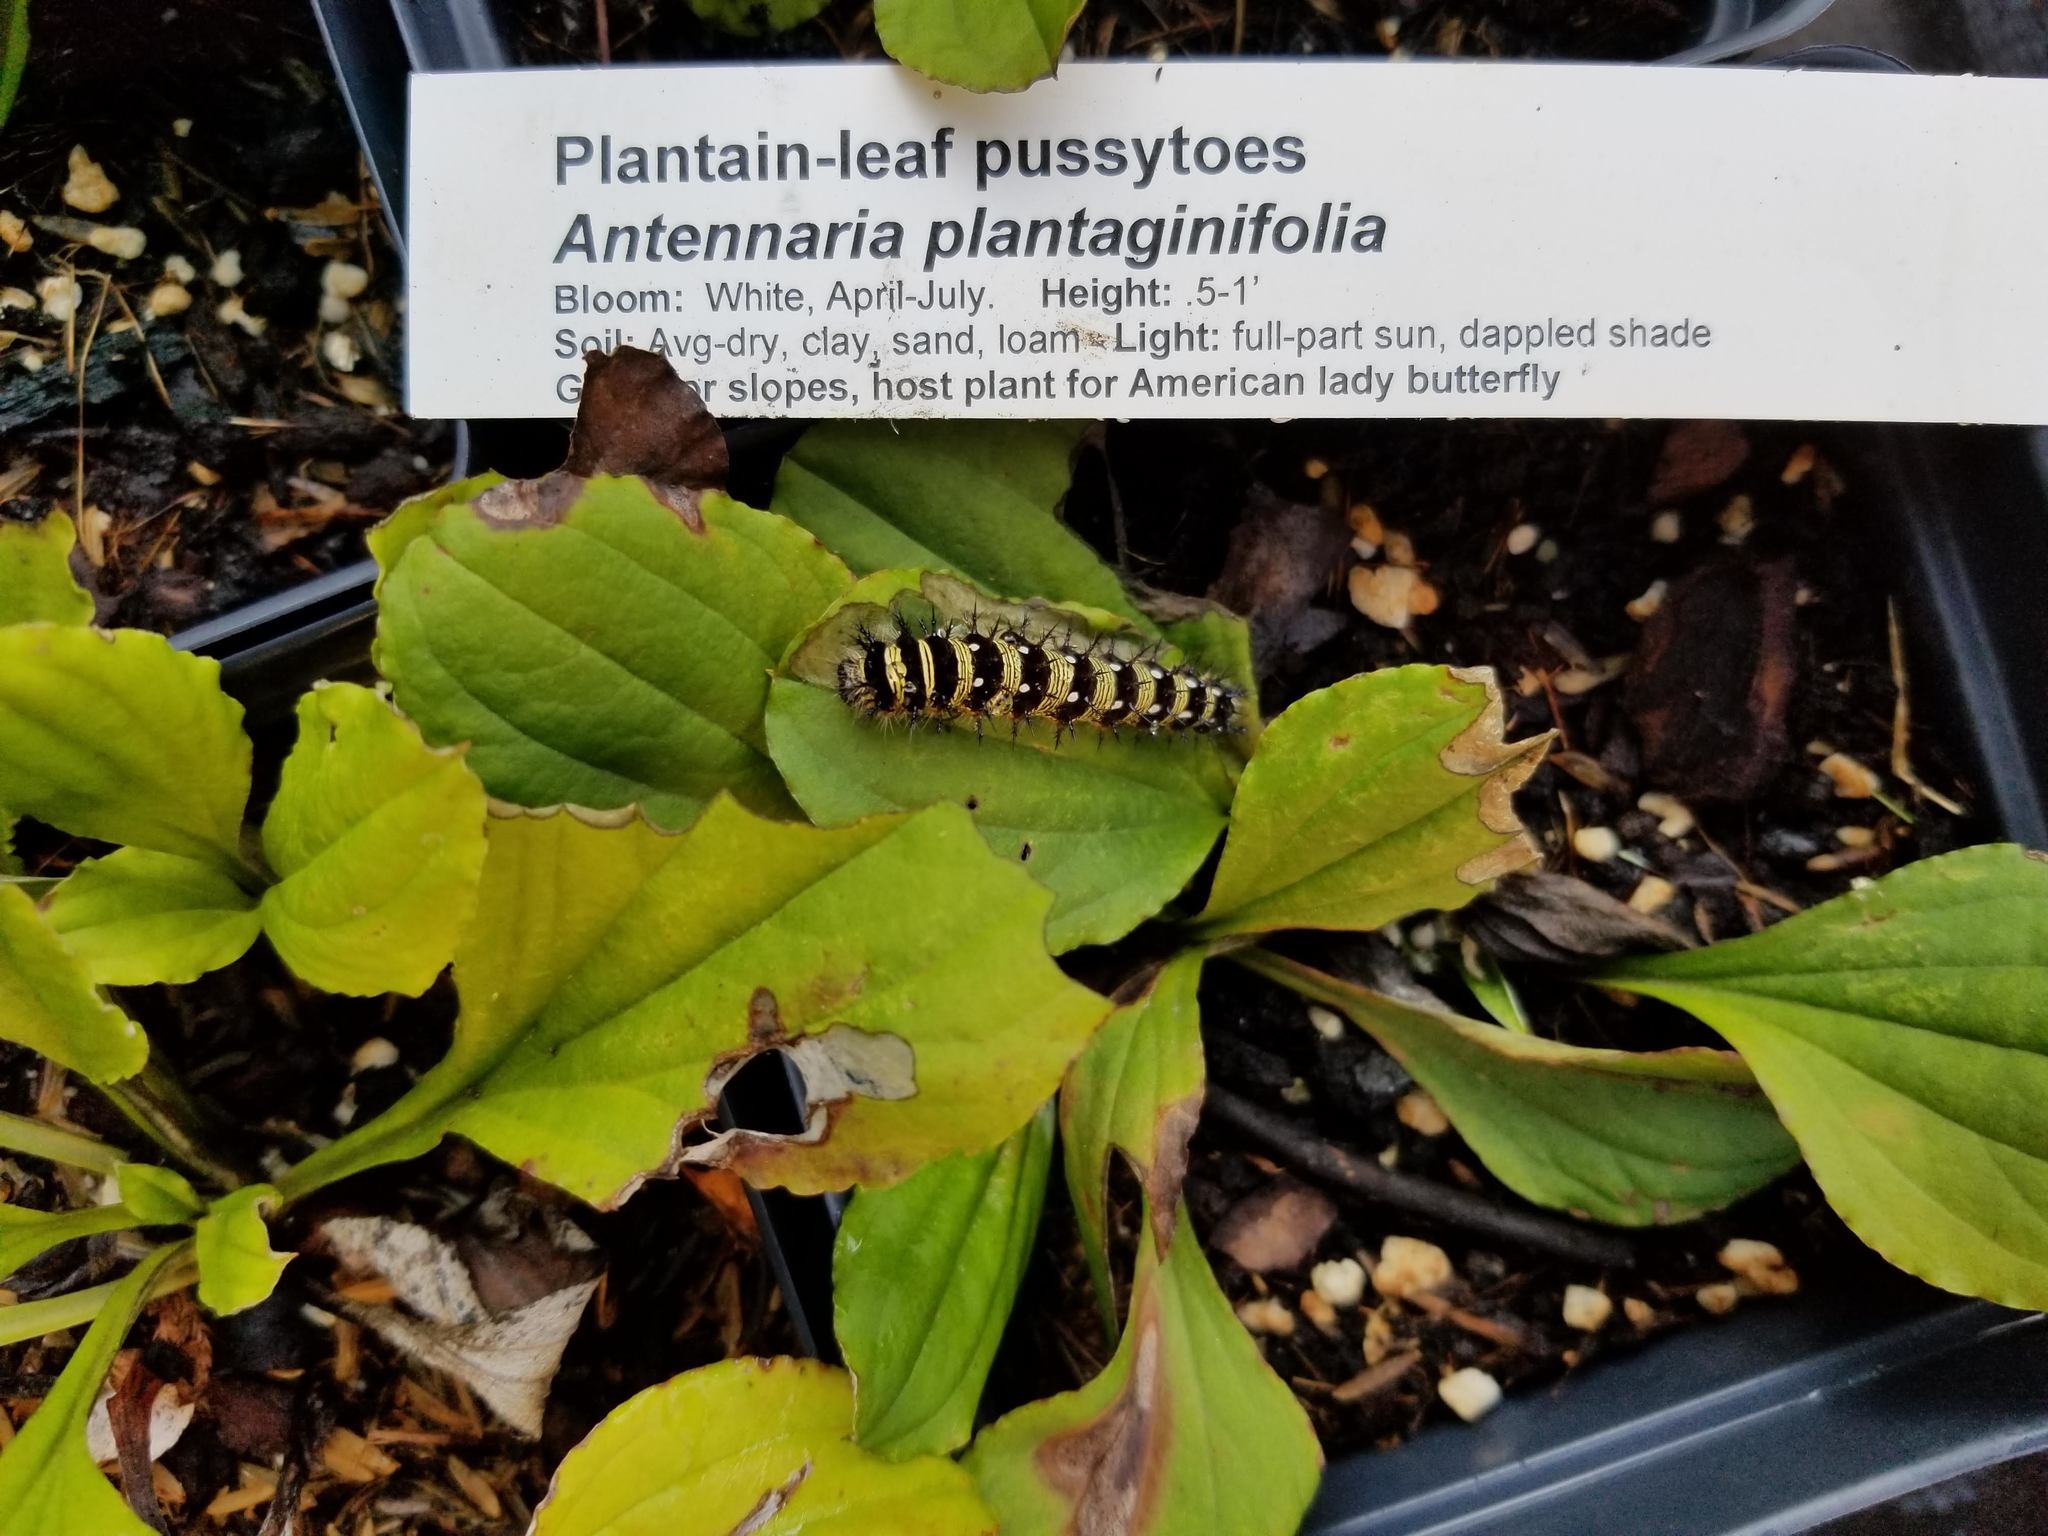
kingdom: Animalia
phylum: Arthropoda
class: Insecta
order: Lepidoptera
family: Nymphalidae
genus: Vanessa
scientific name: Vanessa virginiensis
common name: American lady
